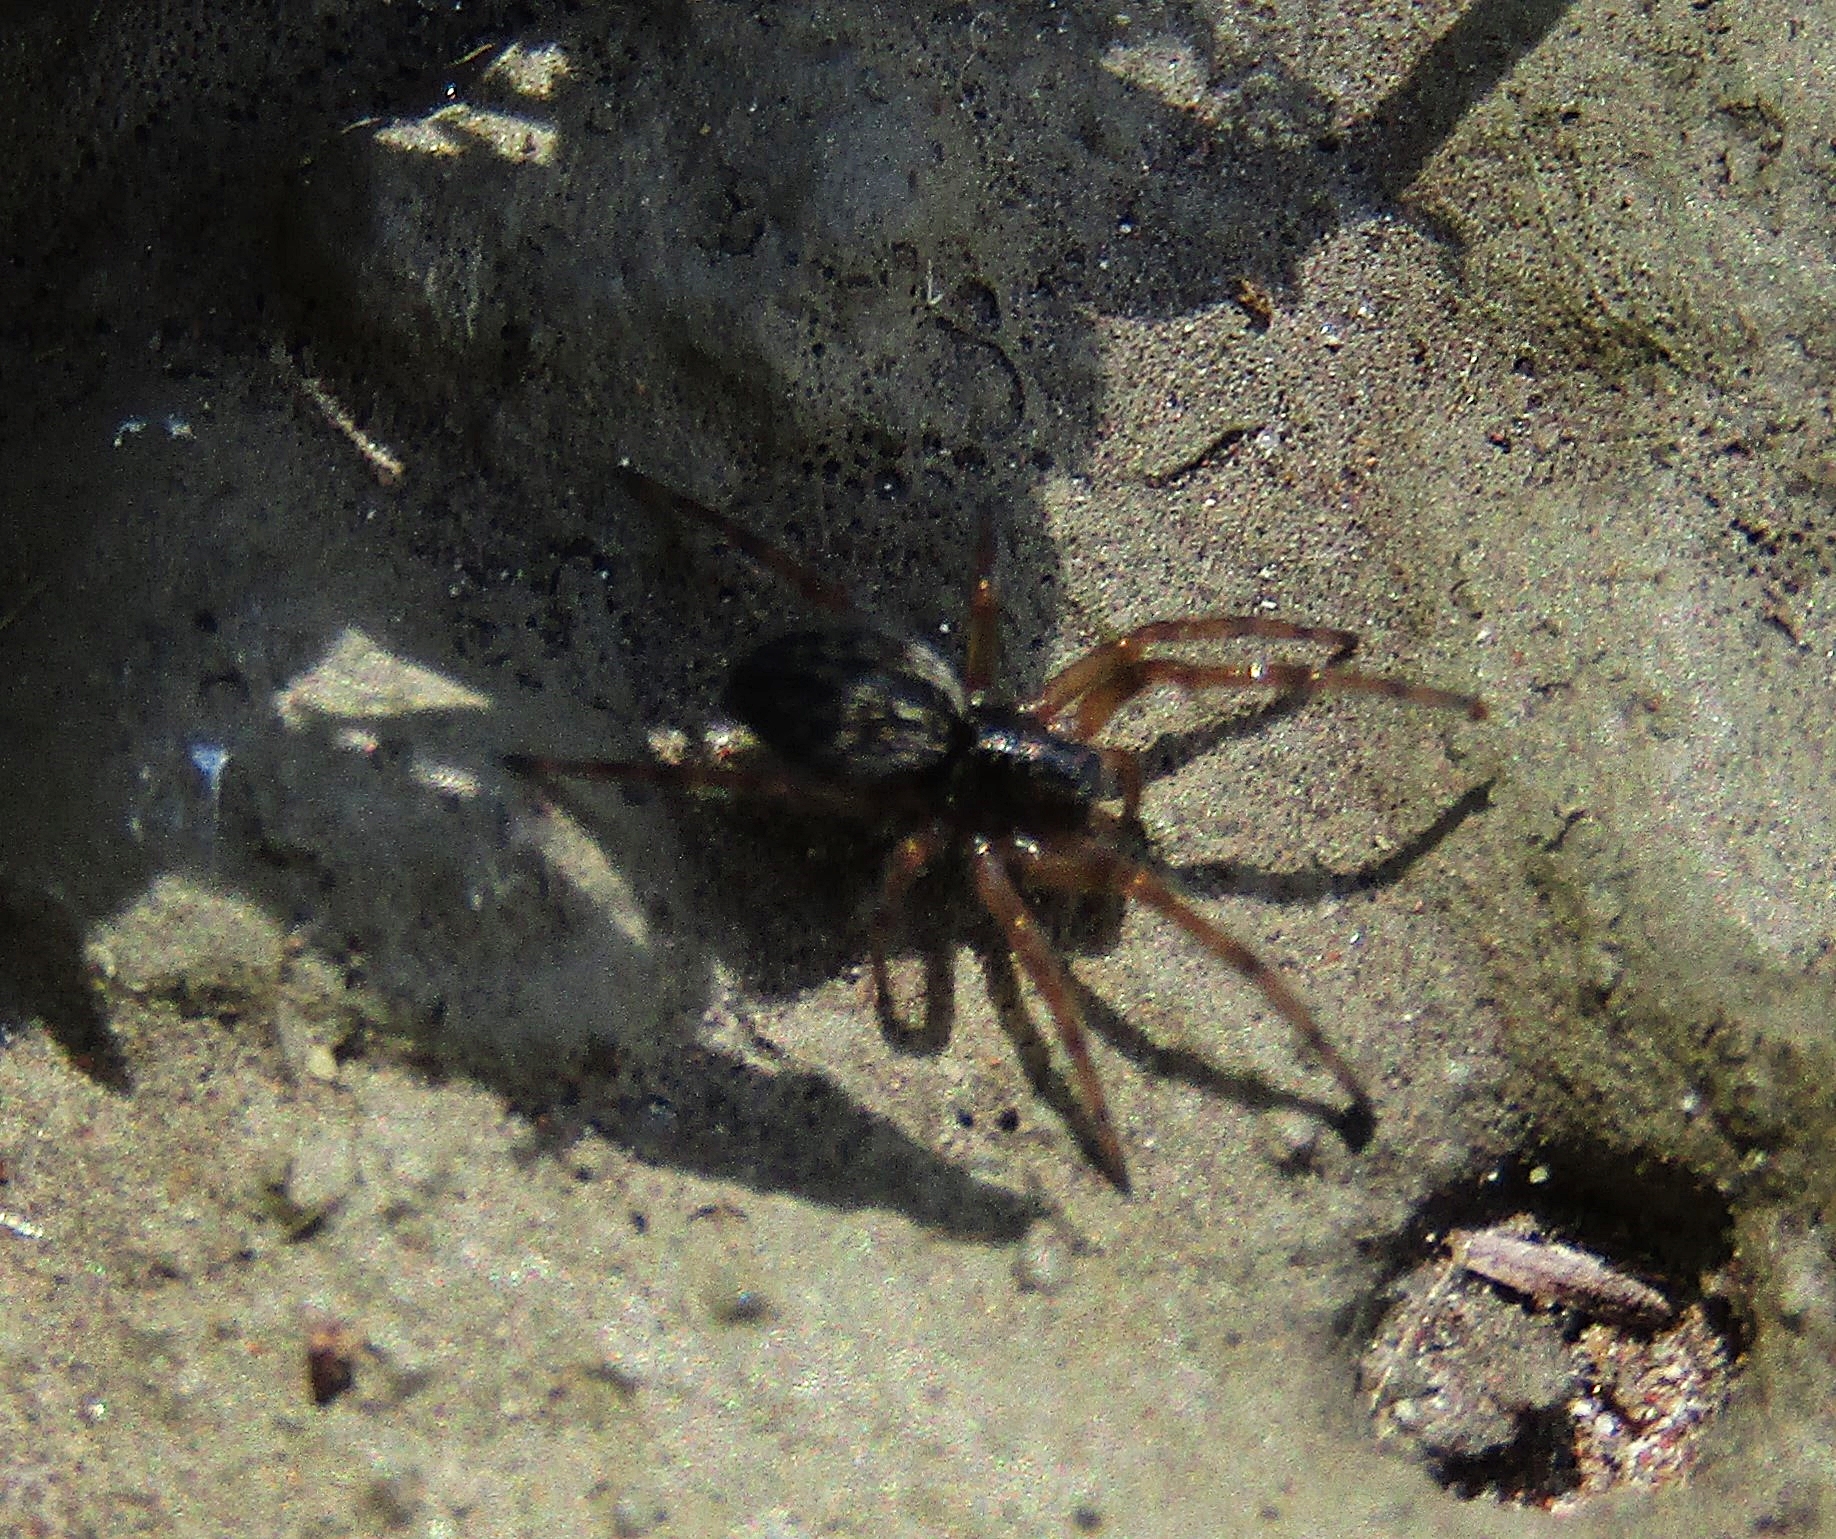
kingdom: Animalia
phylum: Arthropoda
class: Arachnida
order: Araneae
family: Desidae
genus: Badumna
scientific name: Badumna longinqua
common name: Gray house spider
